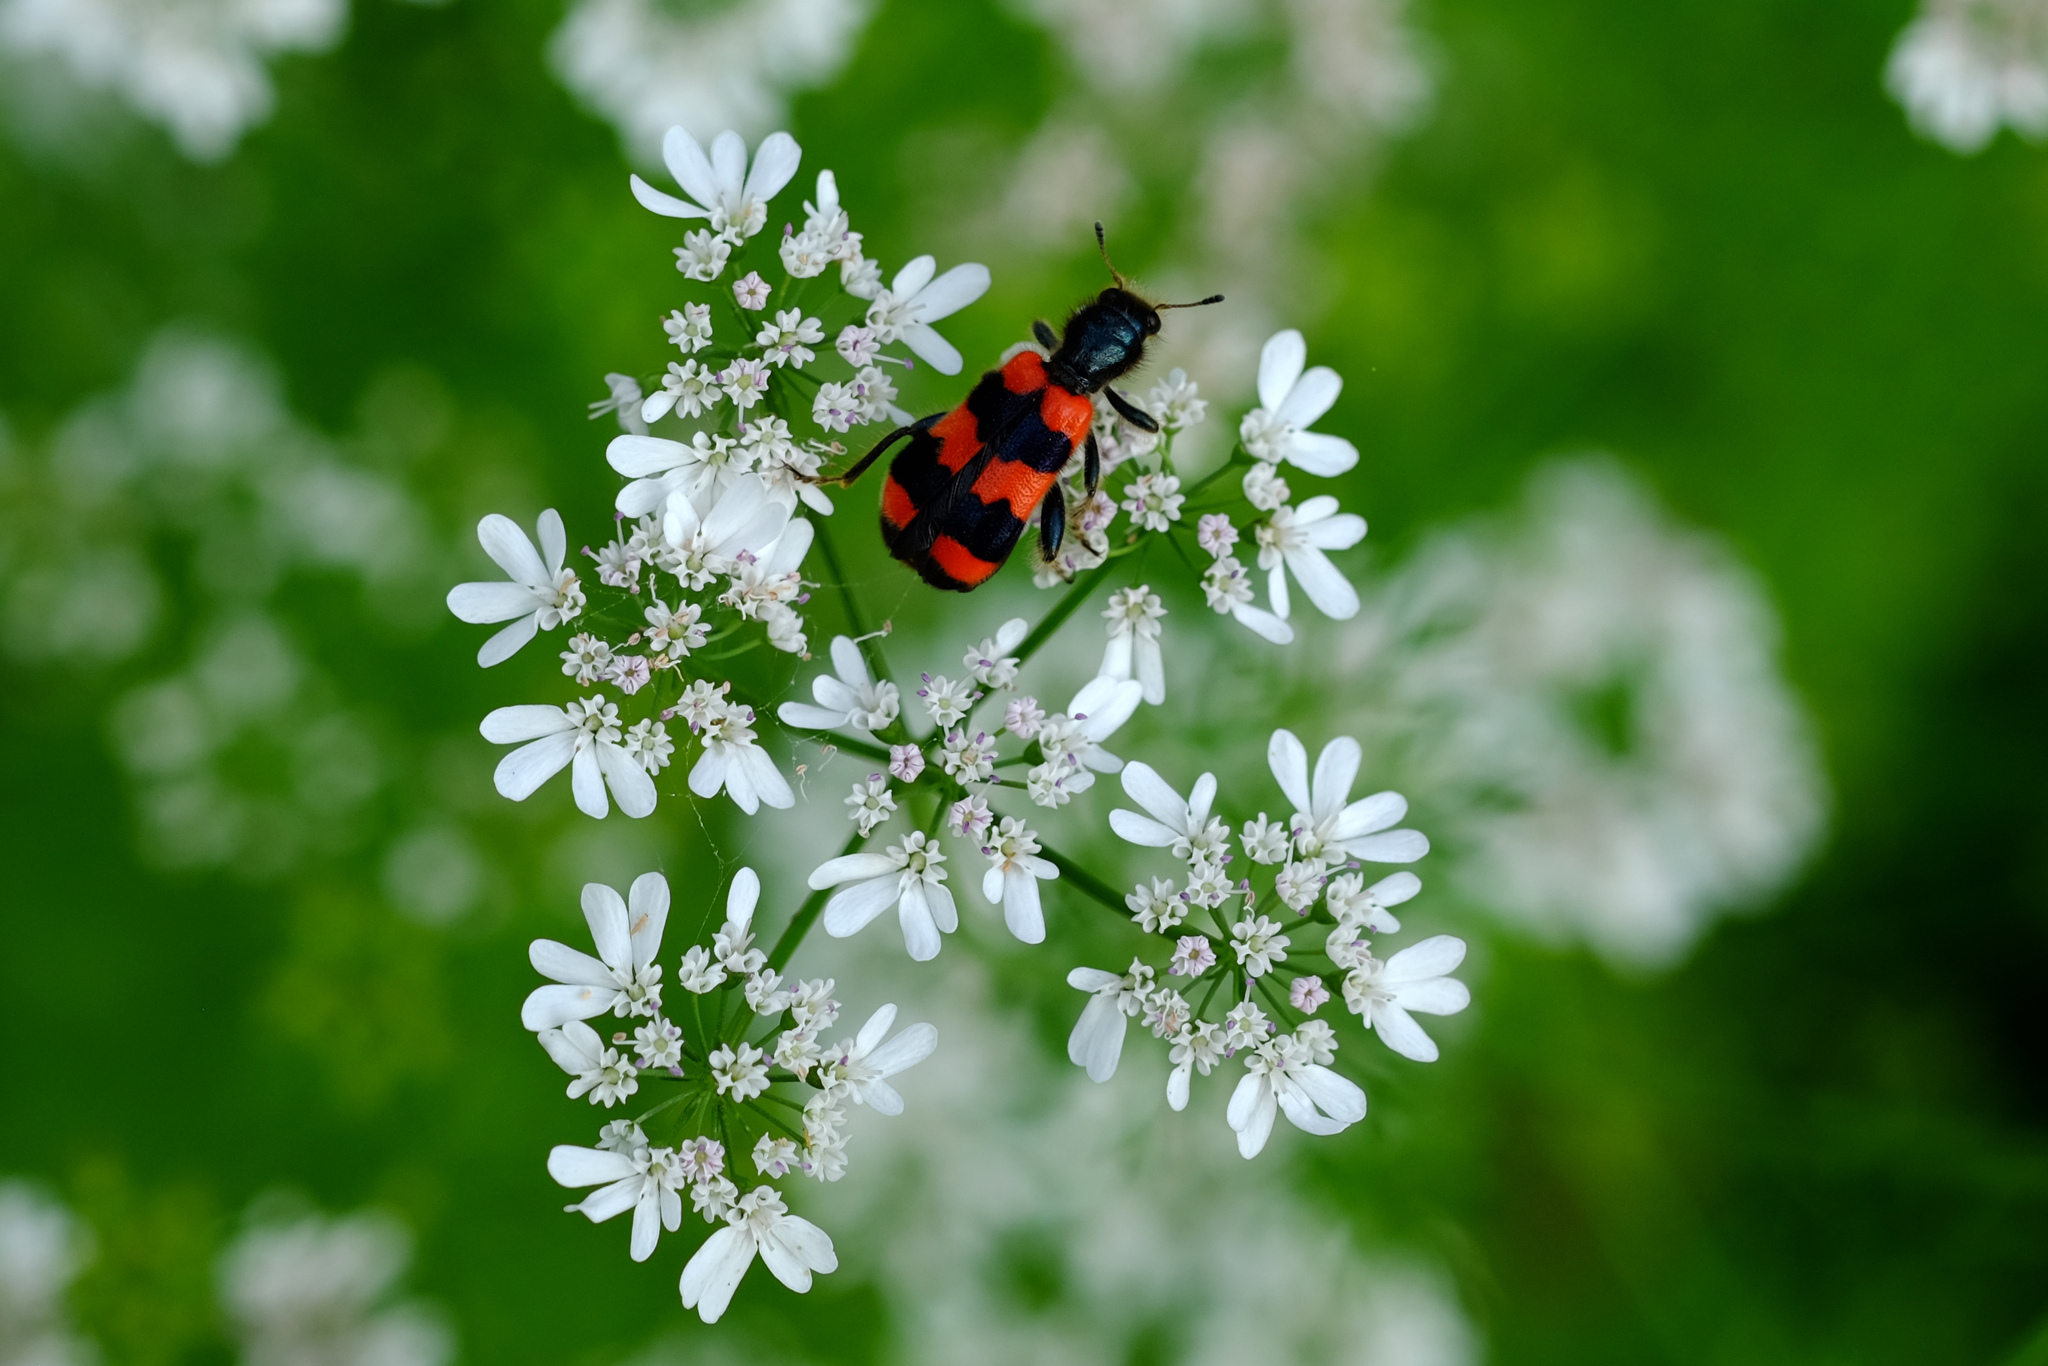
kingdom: Animalia
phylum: Arthropoda
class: Insecta
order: Coleoptera
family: Cleridae
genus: Trichodes
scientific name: Trichodes apiarius
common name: Bee-eating beetle
